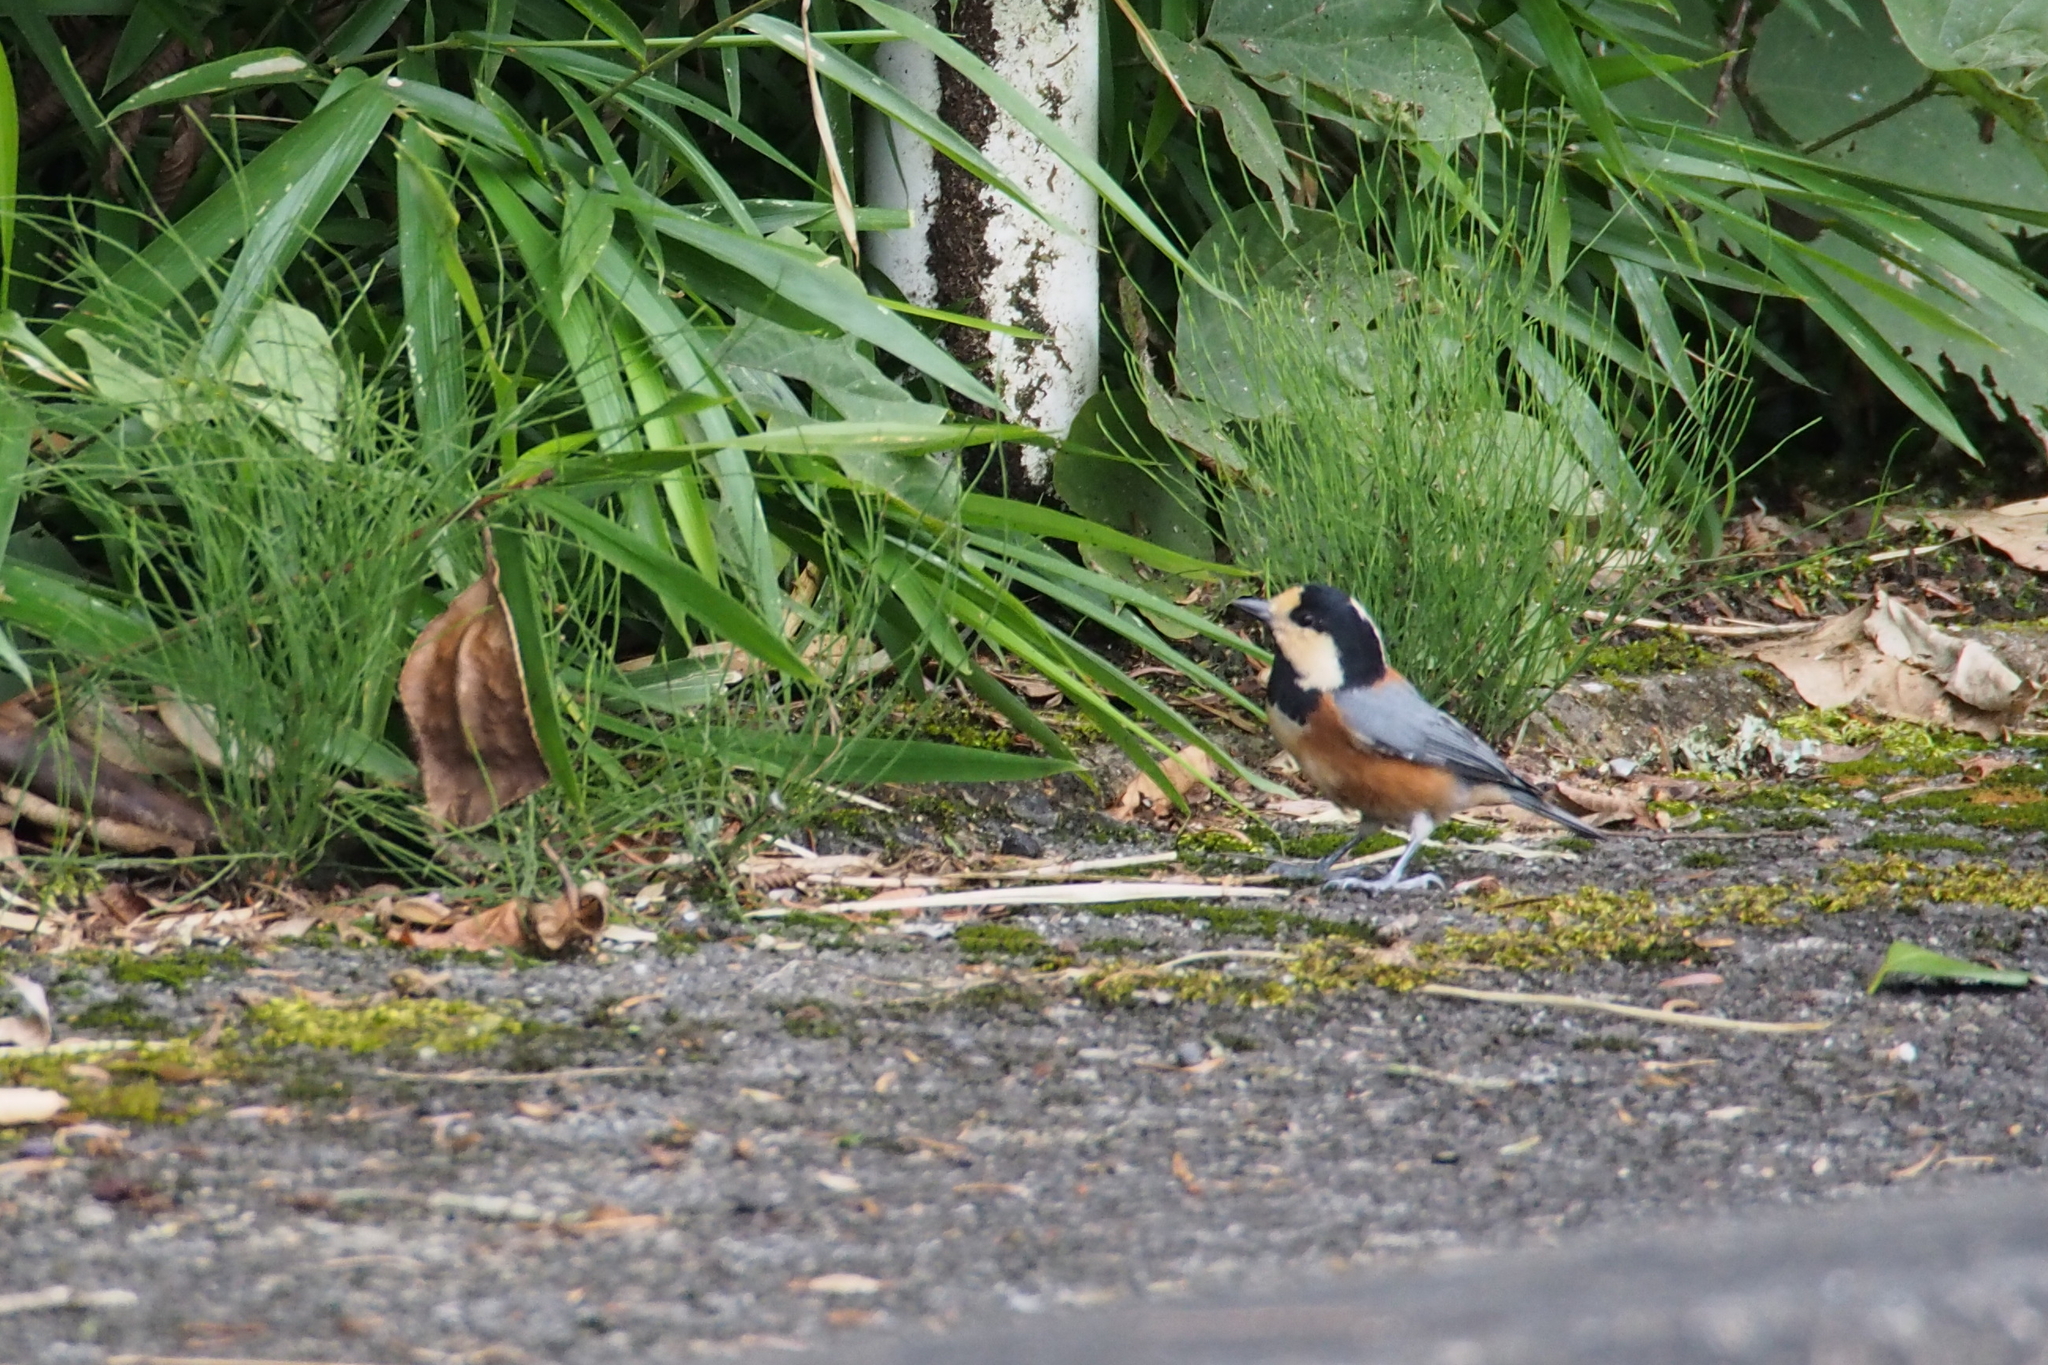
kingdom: Animalia
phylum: Chordata
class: Aves
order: Passeriformes
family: Paridae
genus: Poecile
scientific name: Poecile varius
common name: Varied tit
